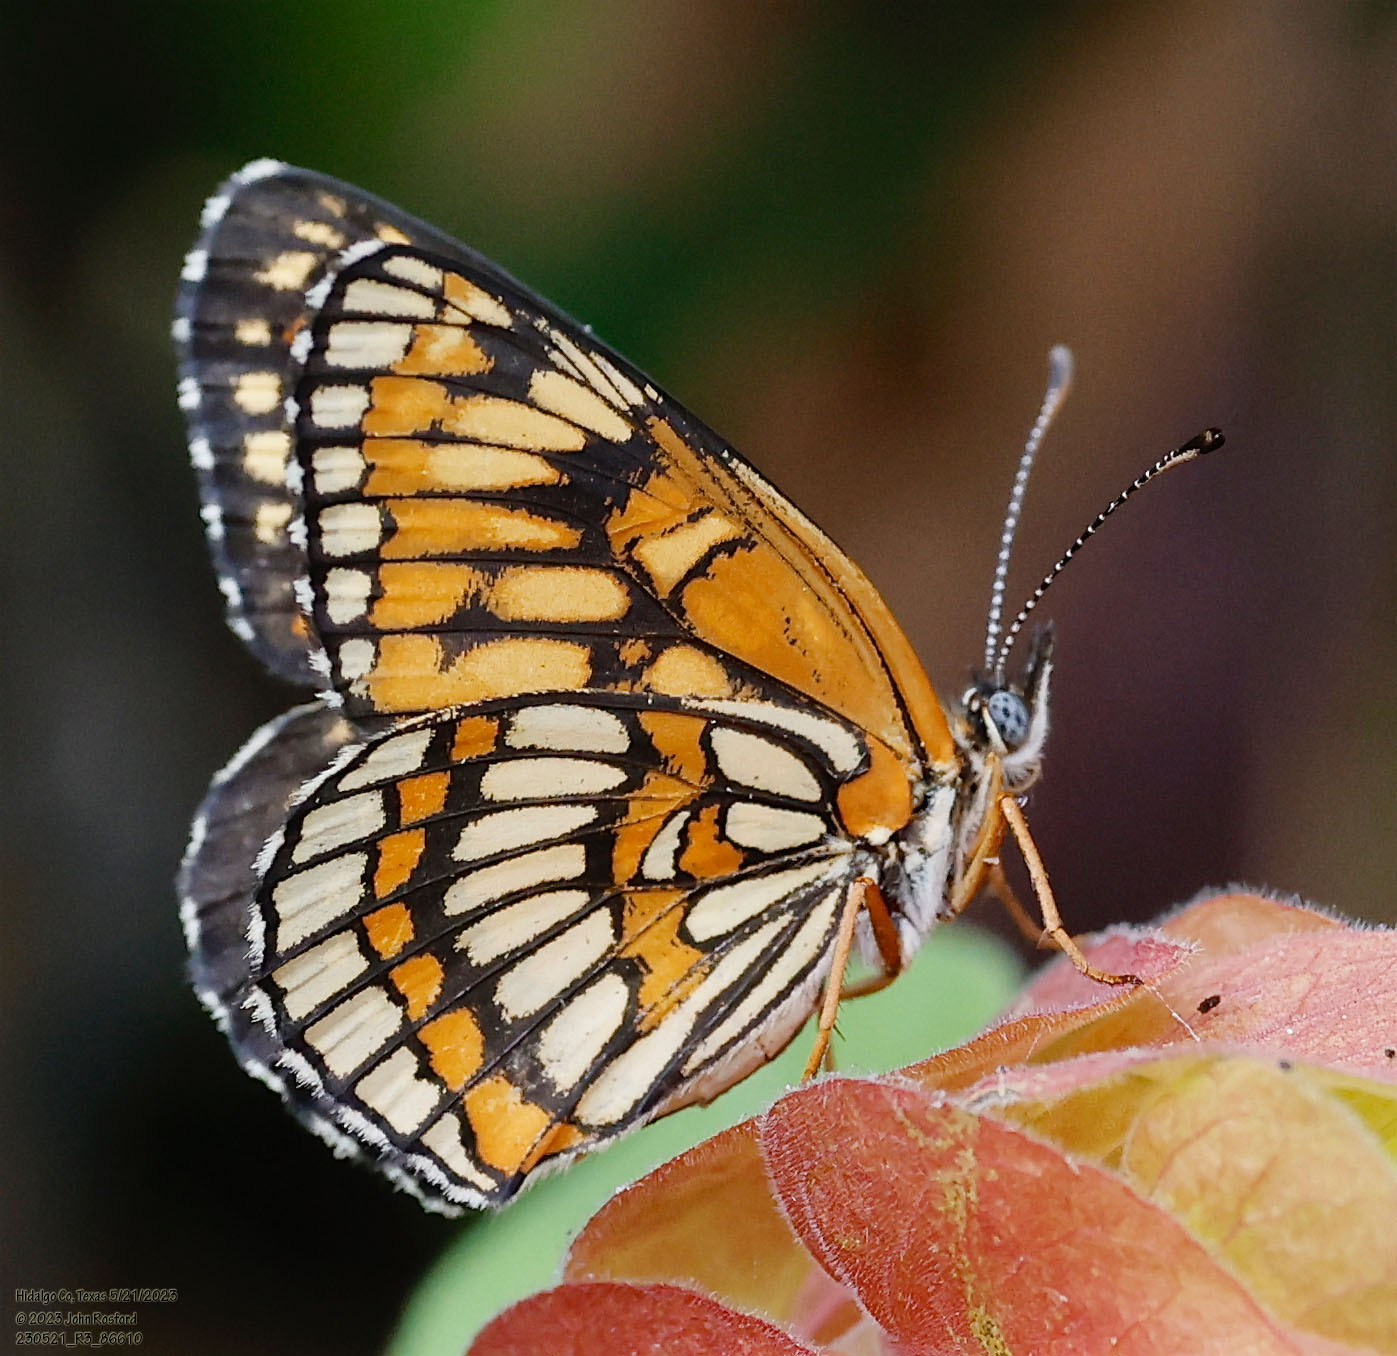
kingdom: Animalia
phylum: Arthropoda
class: Insecta
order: Lepidoptera
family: Nymphalidae
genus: Thessalia
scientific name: Thessalia theona
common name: Nymphalid moth
